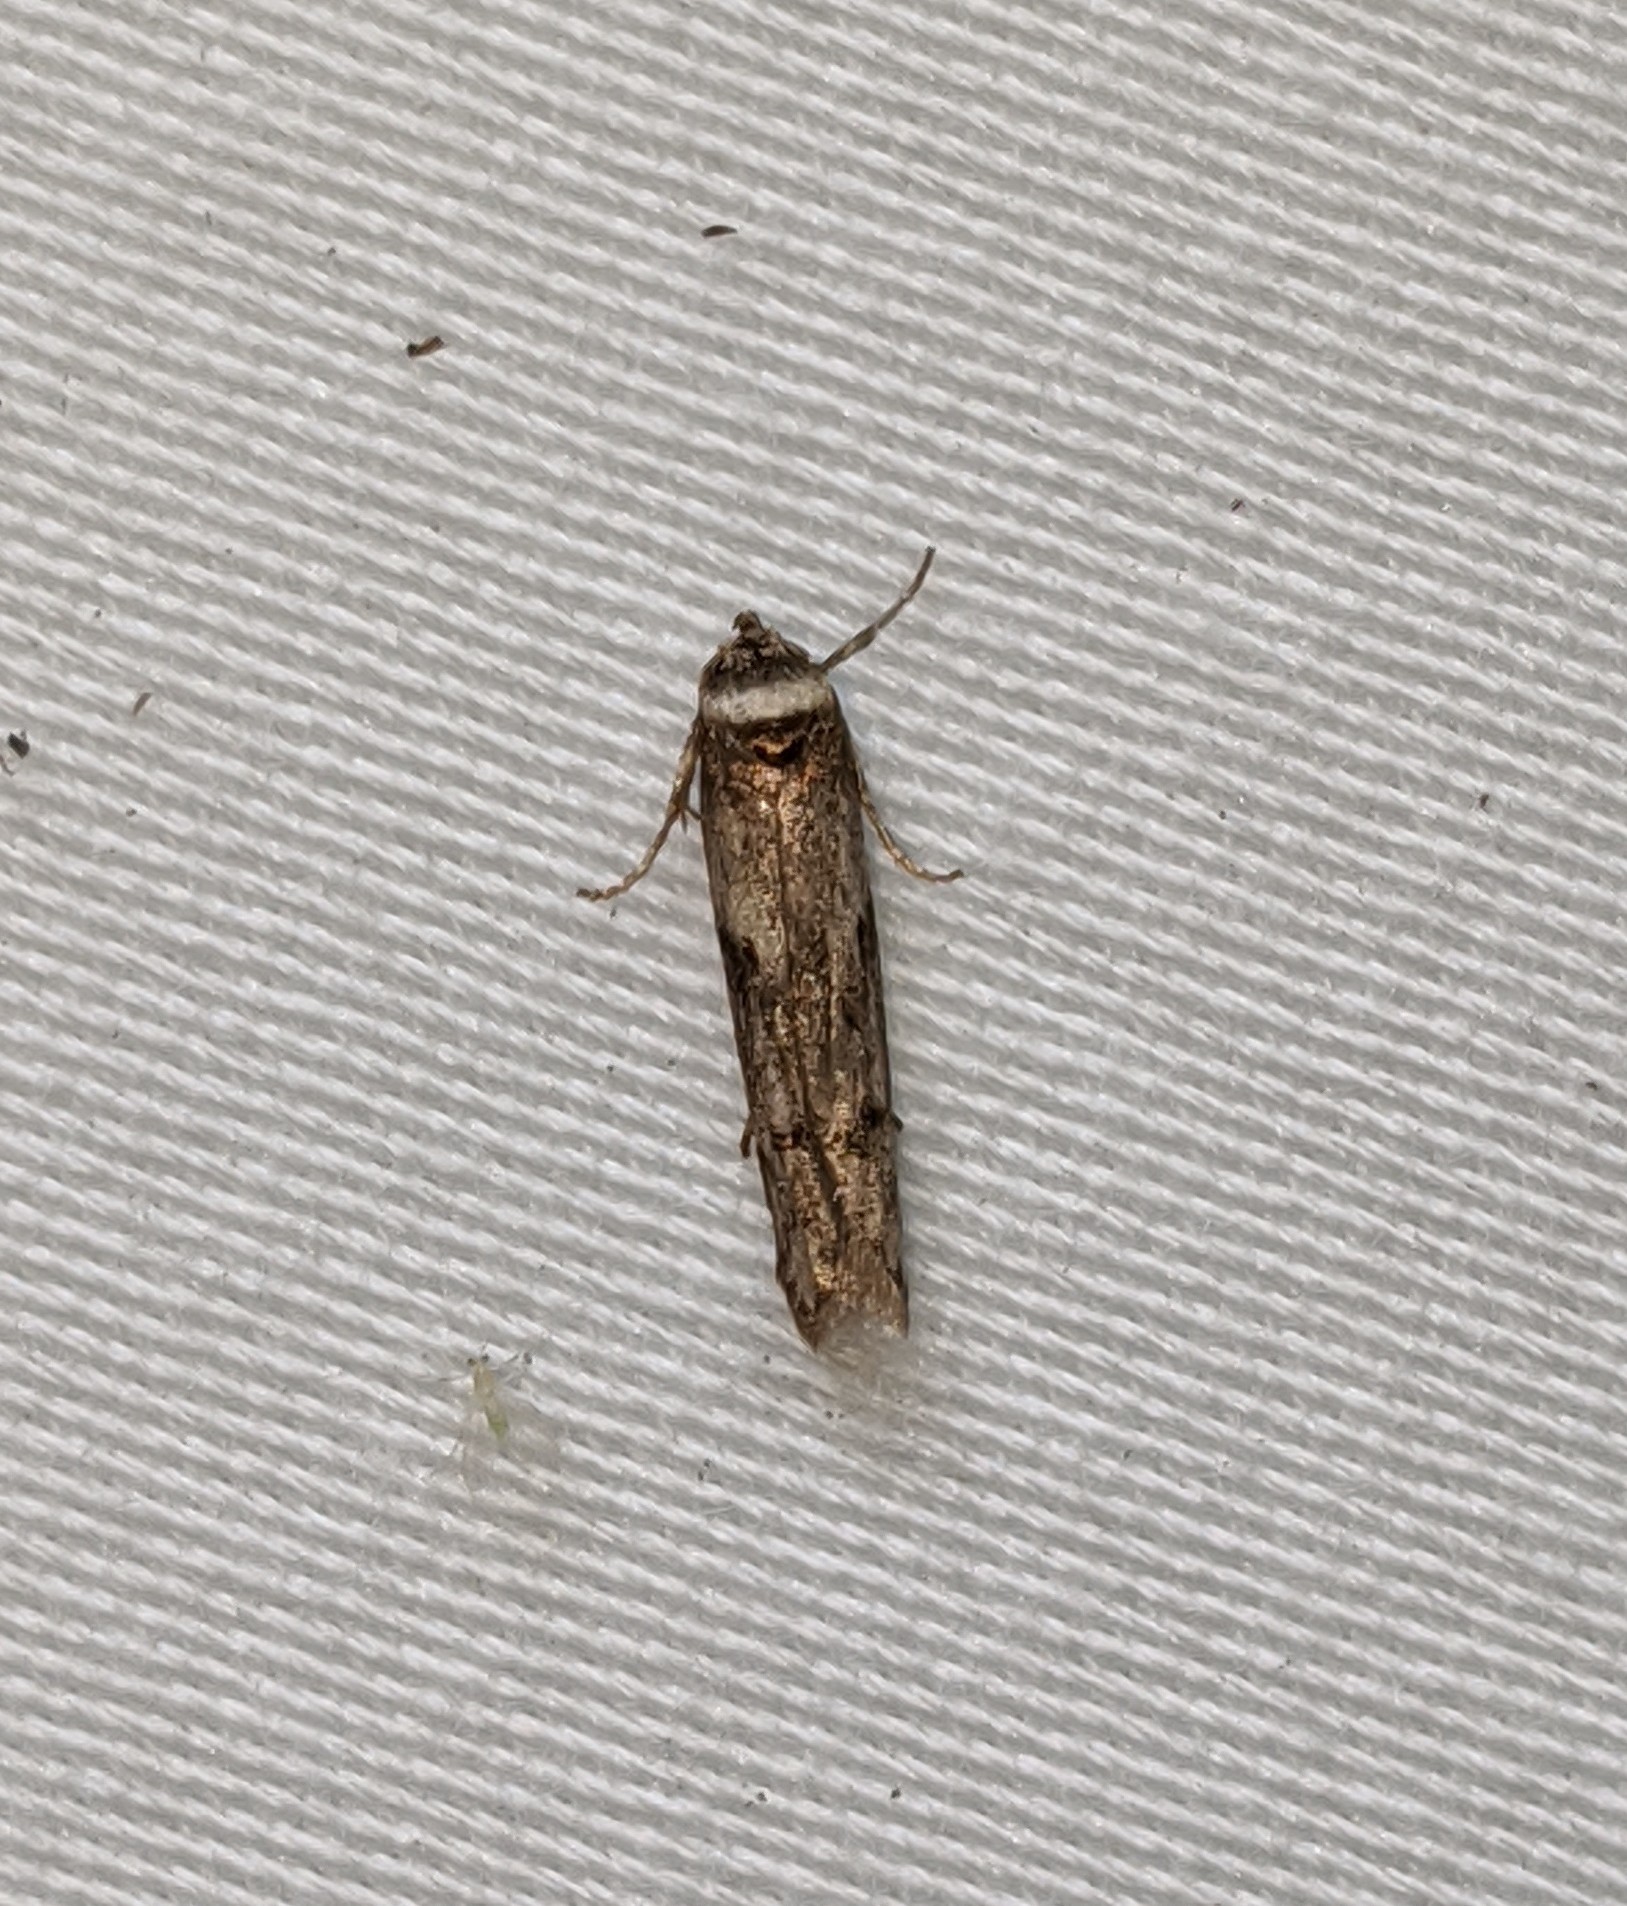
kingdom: Animalia
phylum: Arthropoda
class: Insecta
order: Lepidoptera
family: Blastobasidae
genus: Asaphocrita
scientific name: Asaphocrita aphidiella
